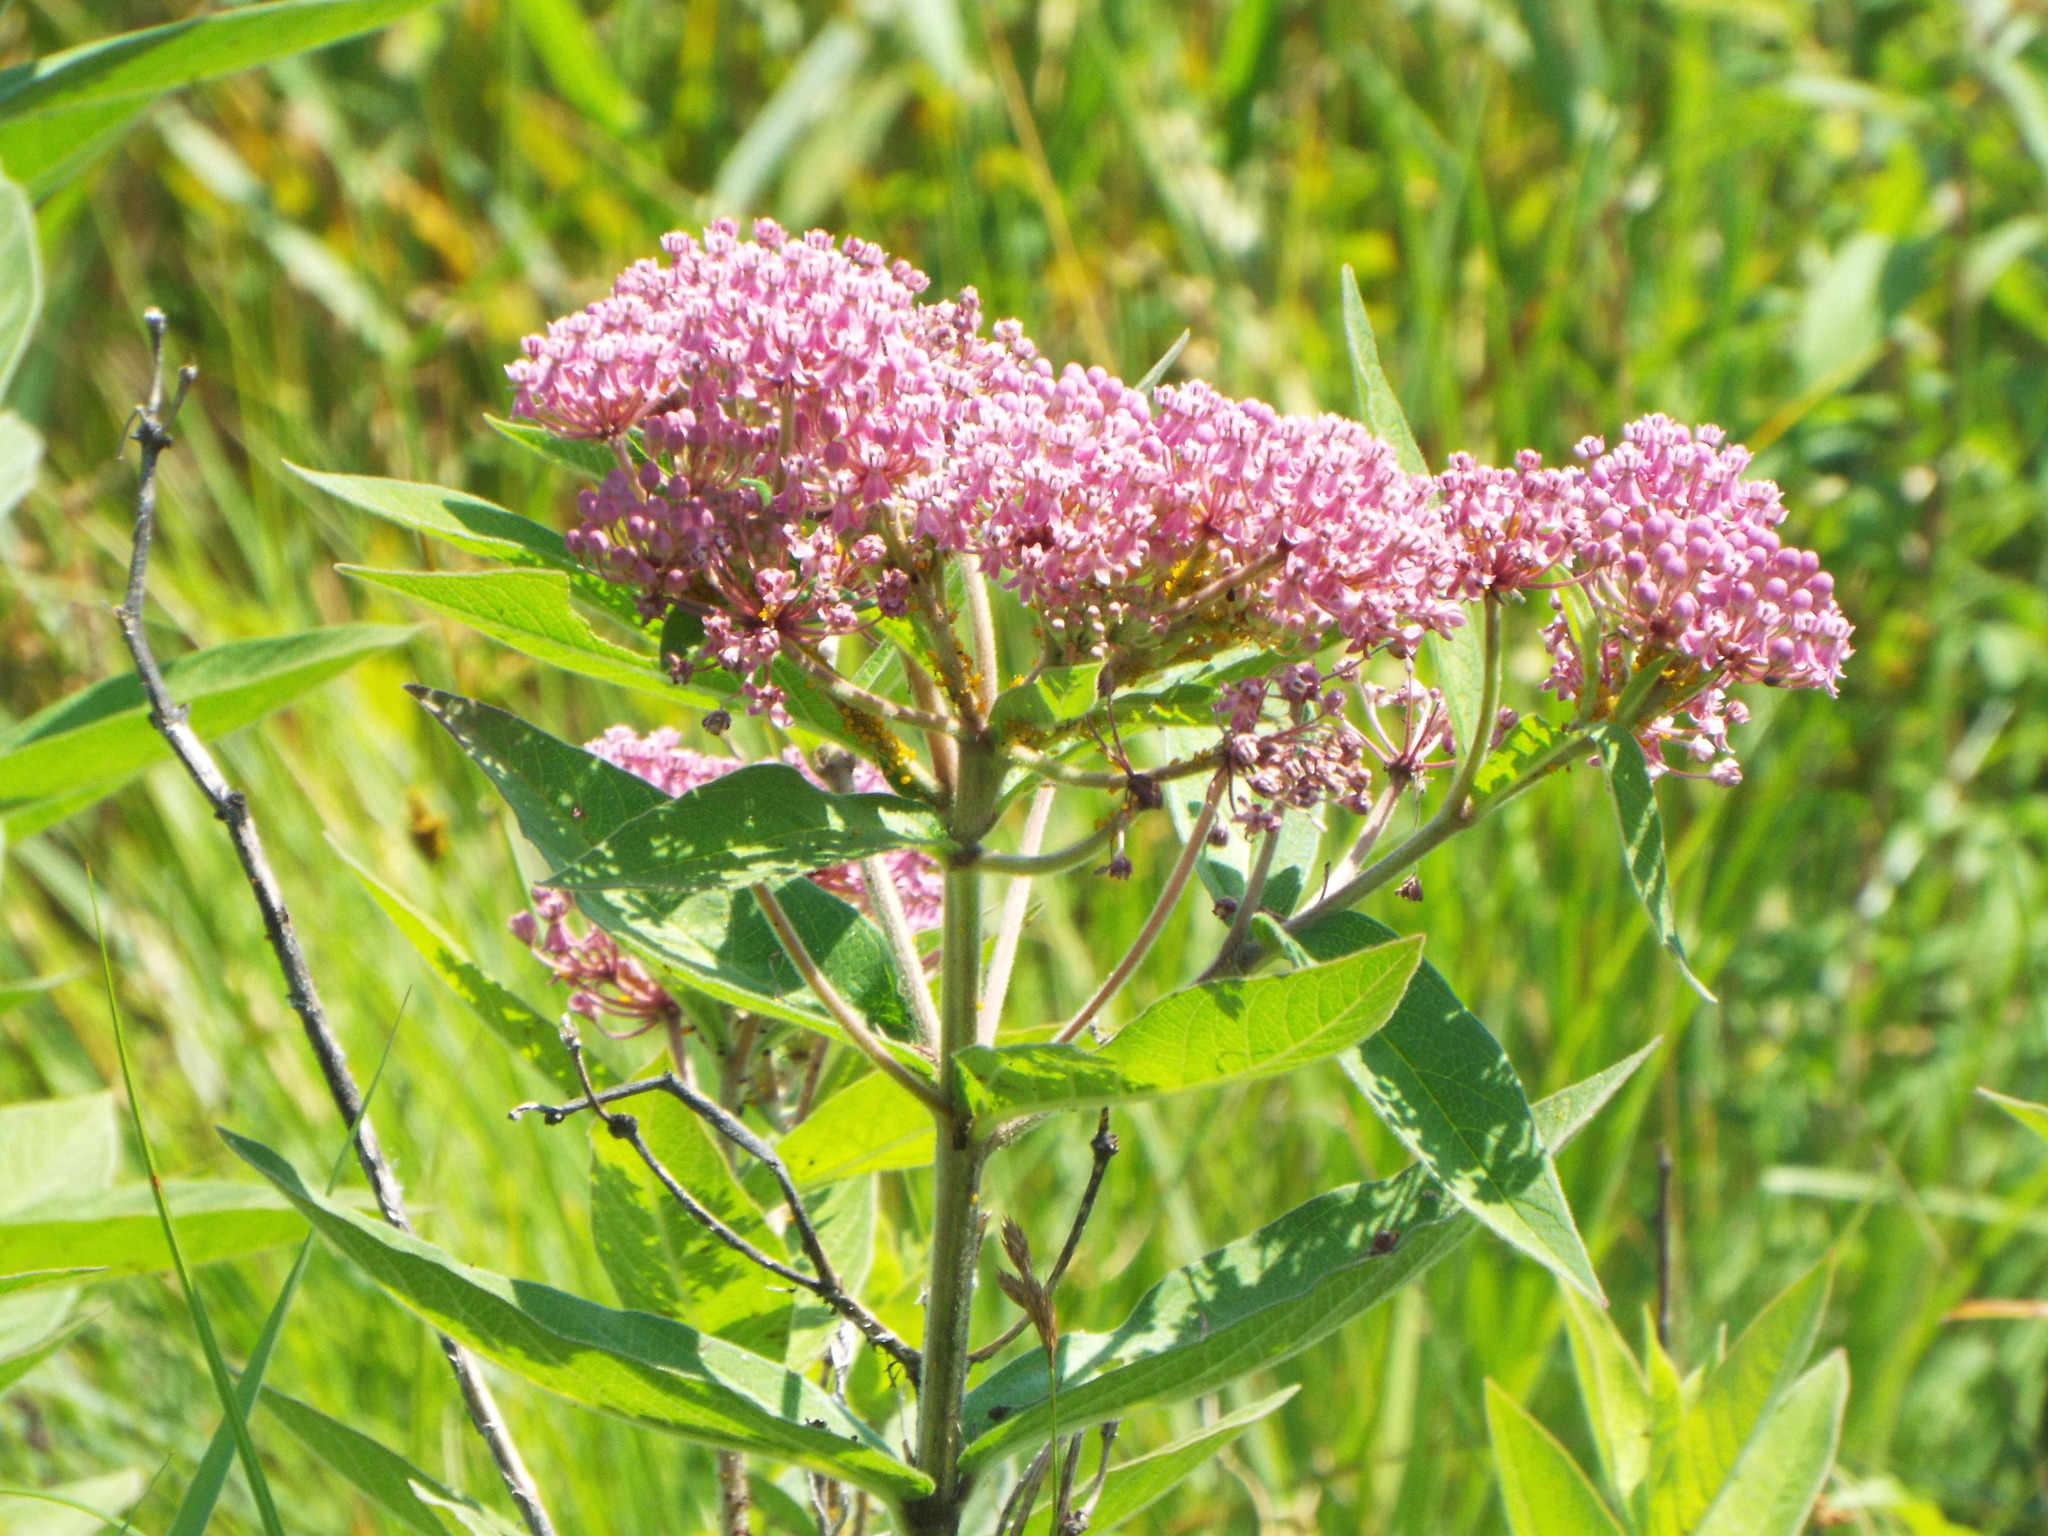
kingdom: Plantae
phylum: Tracheophyta
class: Magnoliopsida
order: Gentianales
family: Apocynaceae
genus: Asclepias
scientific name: Asclepias incarnata
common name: Swamp milkweed
